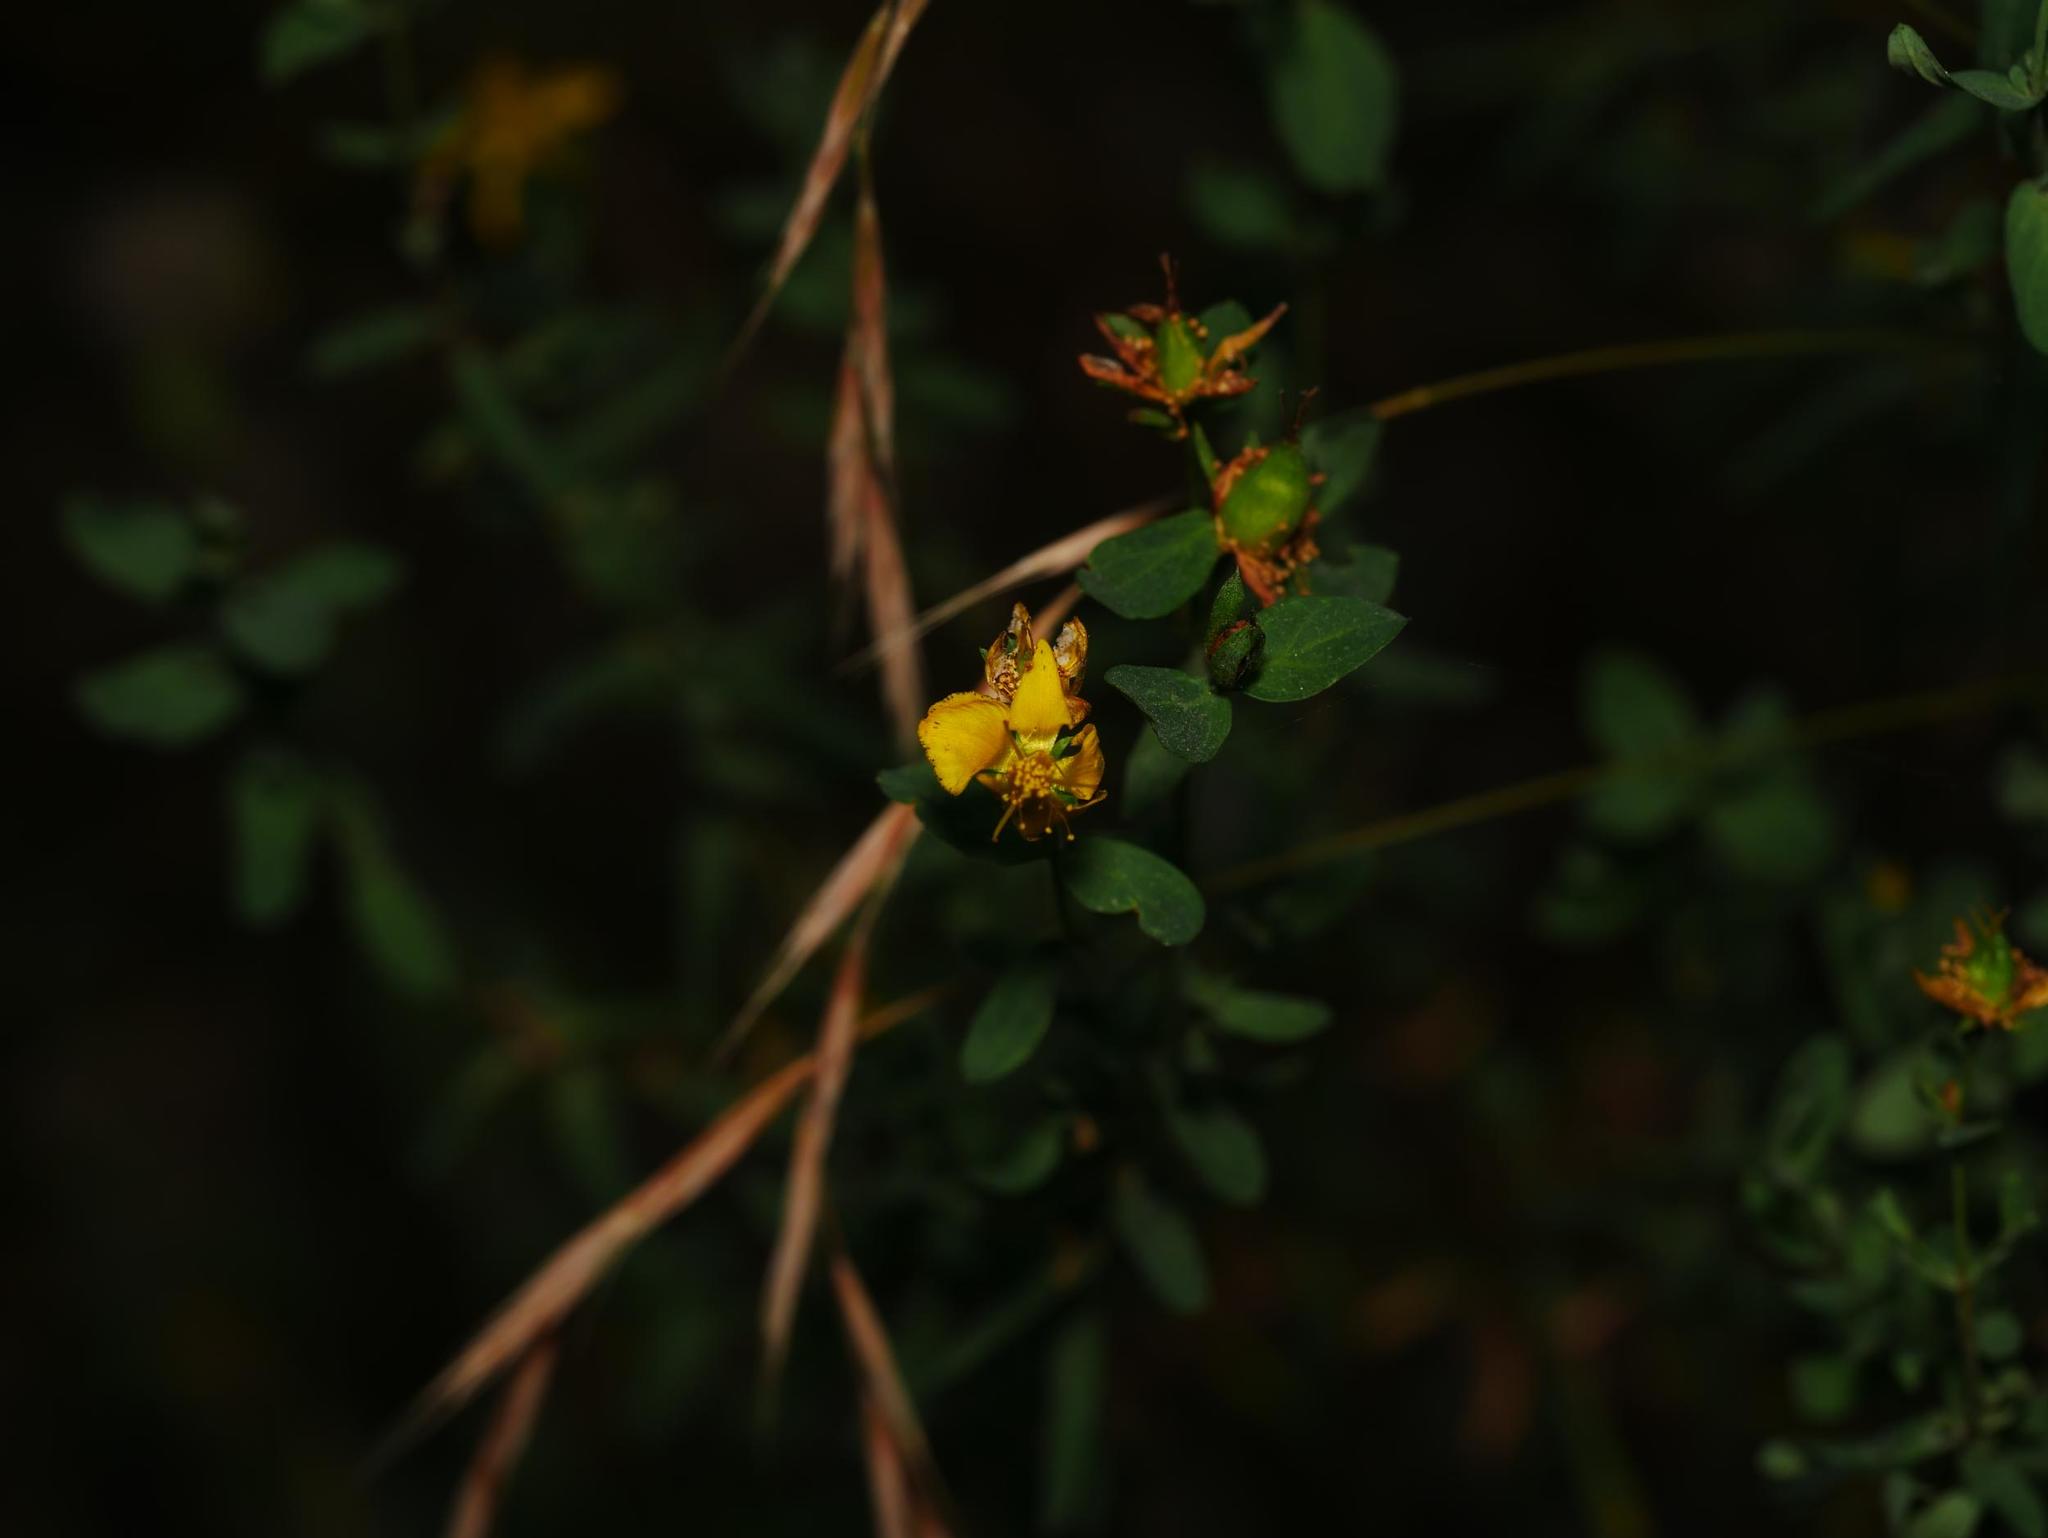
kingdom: Plantae
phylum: Tracheophyta
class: Magnoliopsida
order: Malpighiales
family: Hypericaceae
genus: Hypericum
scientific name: Hypericum perforatum
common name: Common st. johnswort
